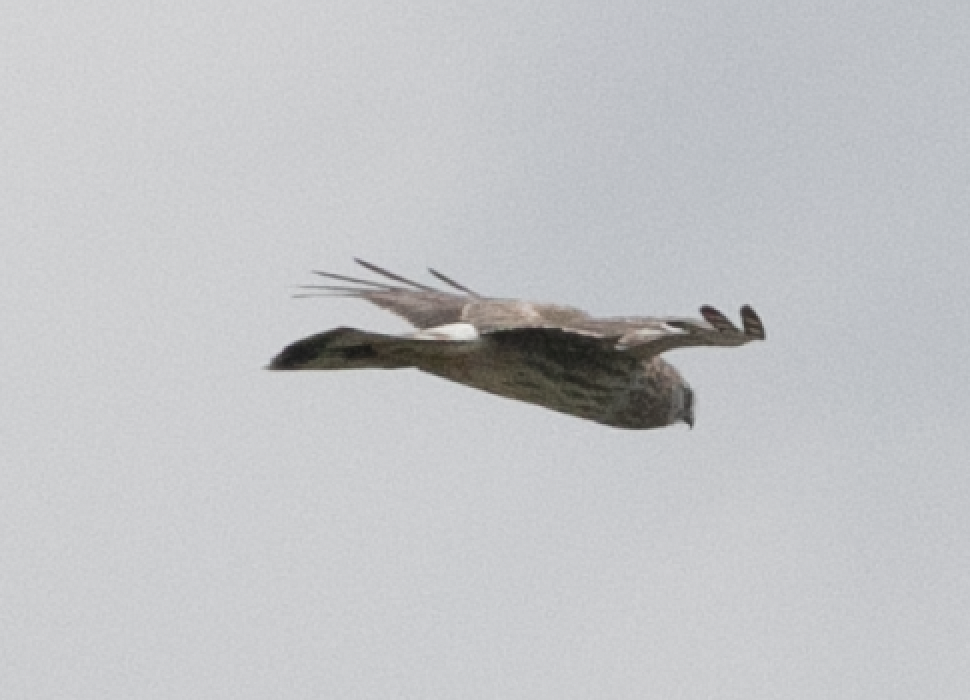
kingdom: Animalia
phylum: Chordata
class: Aves
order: Accipitriformes
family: Accipitridae
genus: Circus
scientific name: Circus cyaneus
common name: Hen harrier
